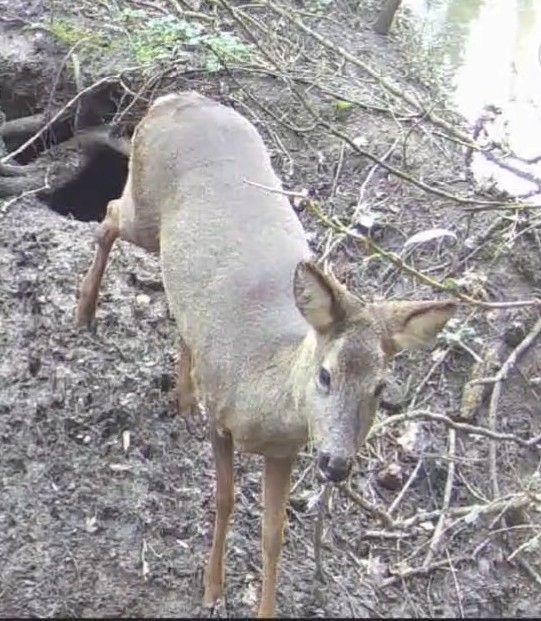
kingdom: Animalia
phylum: Chordata
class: Mammalia
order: Artiodactyla
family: Cervidae
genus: Capreolus
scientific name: Capreolus capreolus
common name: Western roe deer
